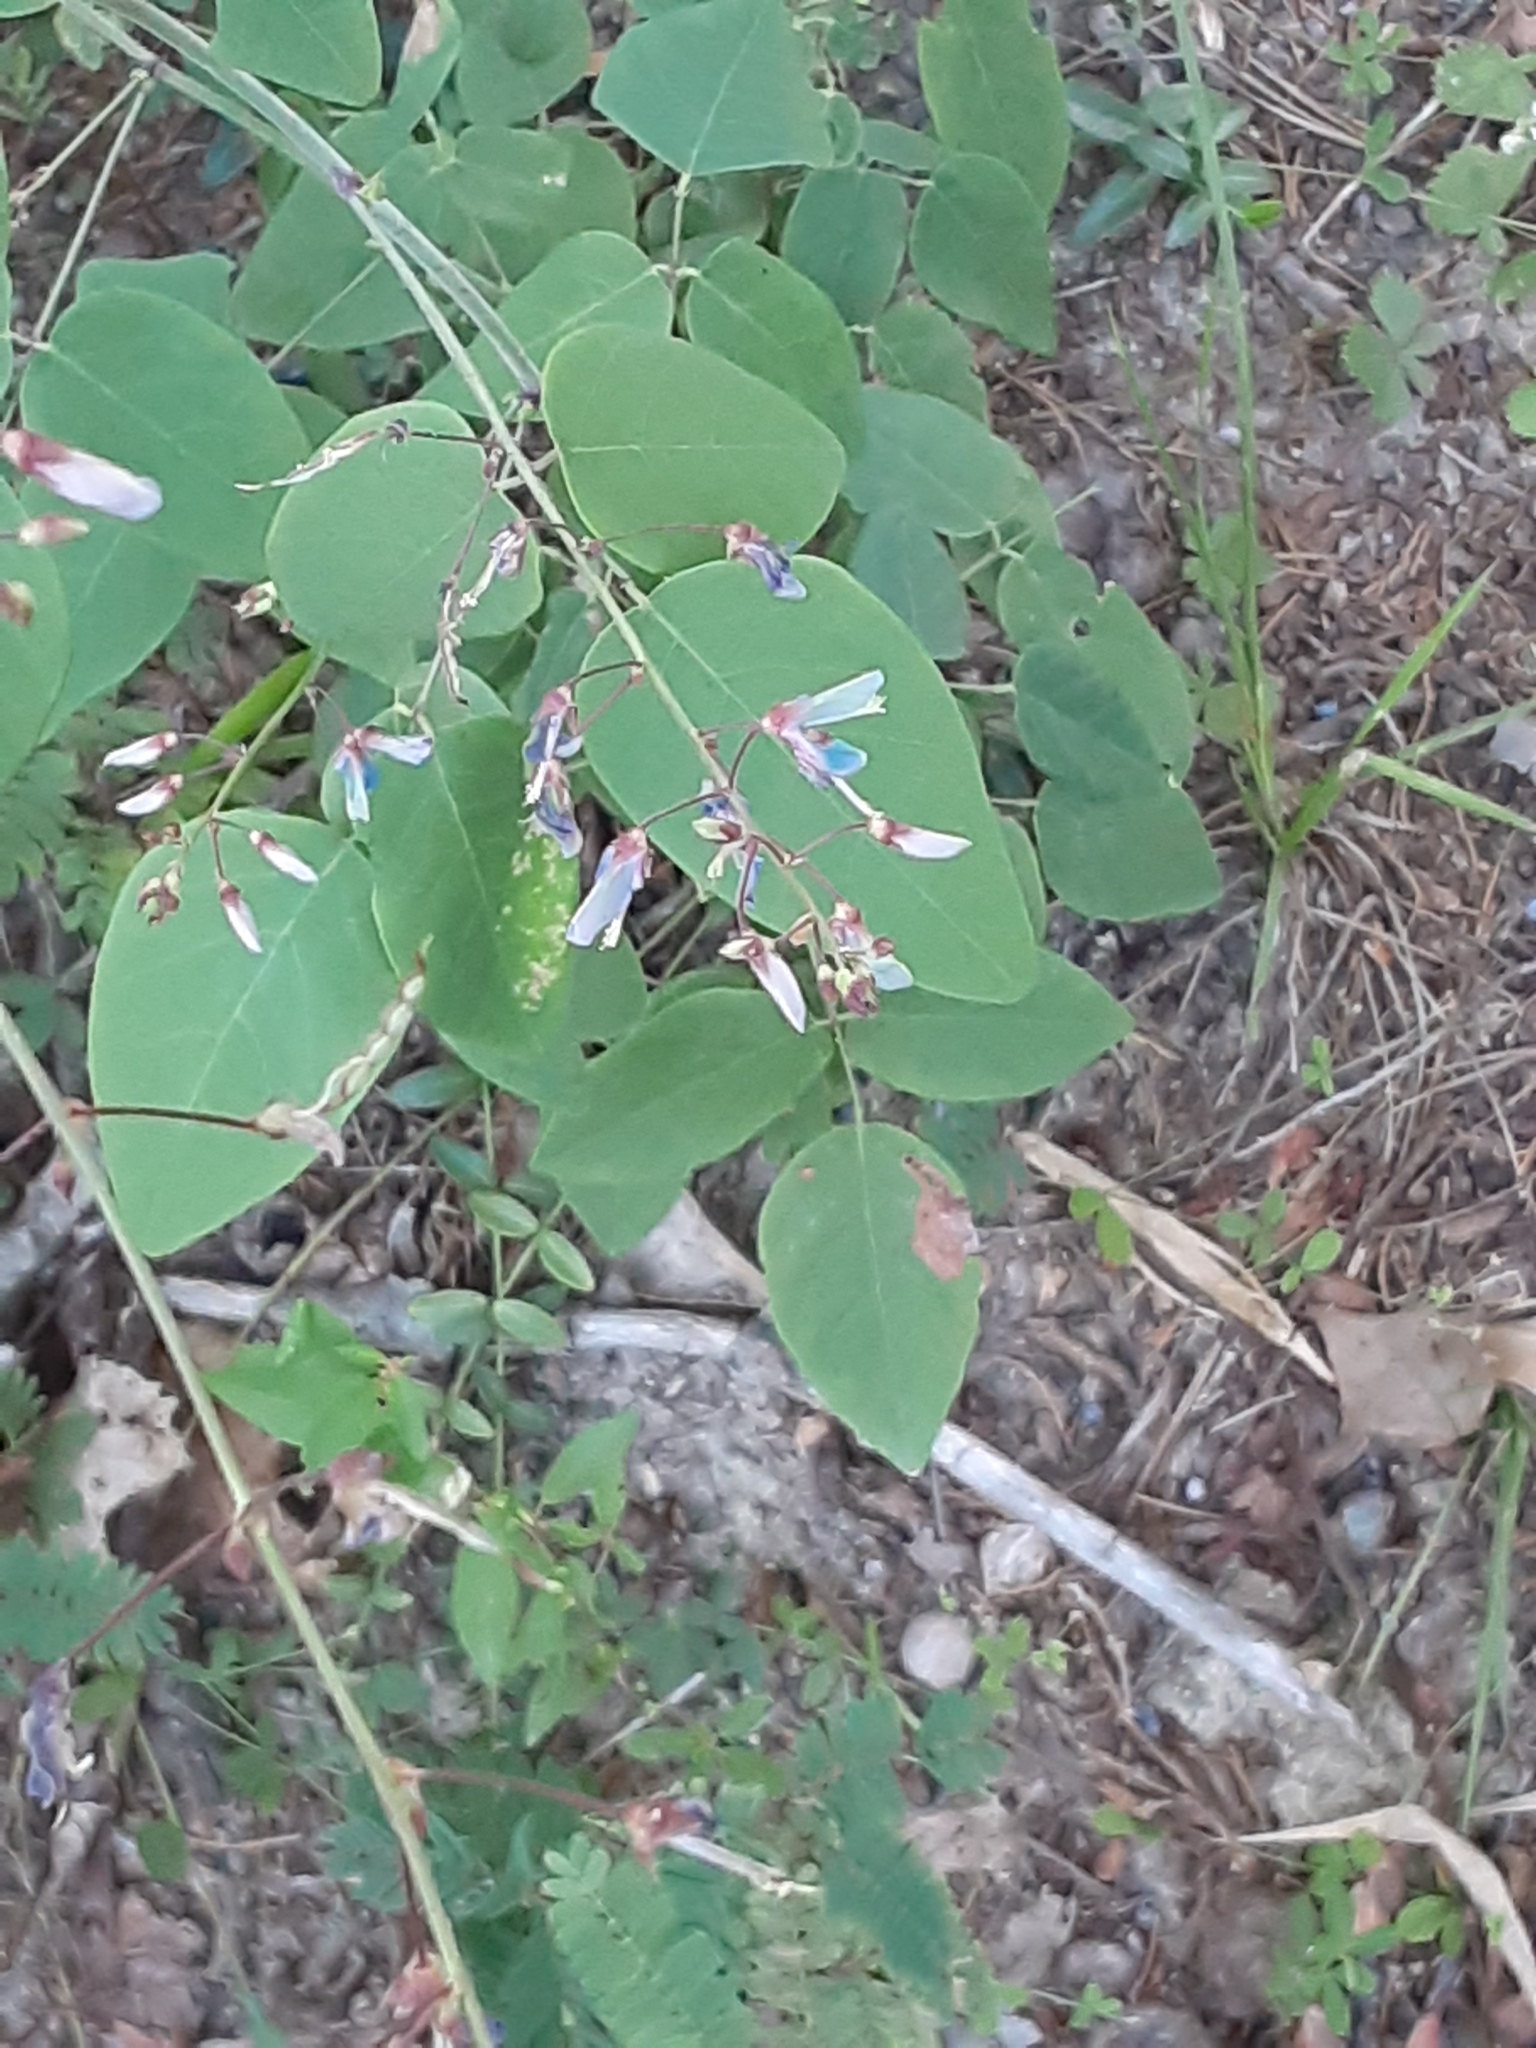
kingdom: Plantae
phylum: Tracheophyta
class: Magnoliopsida
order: Fabales
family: Fabaceae
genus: Desmodium
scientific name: Desmodium laevigatum
